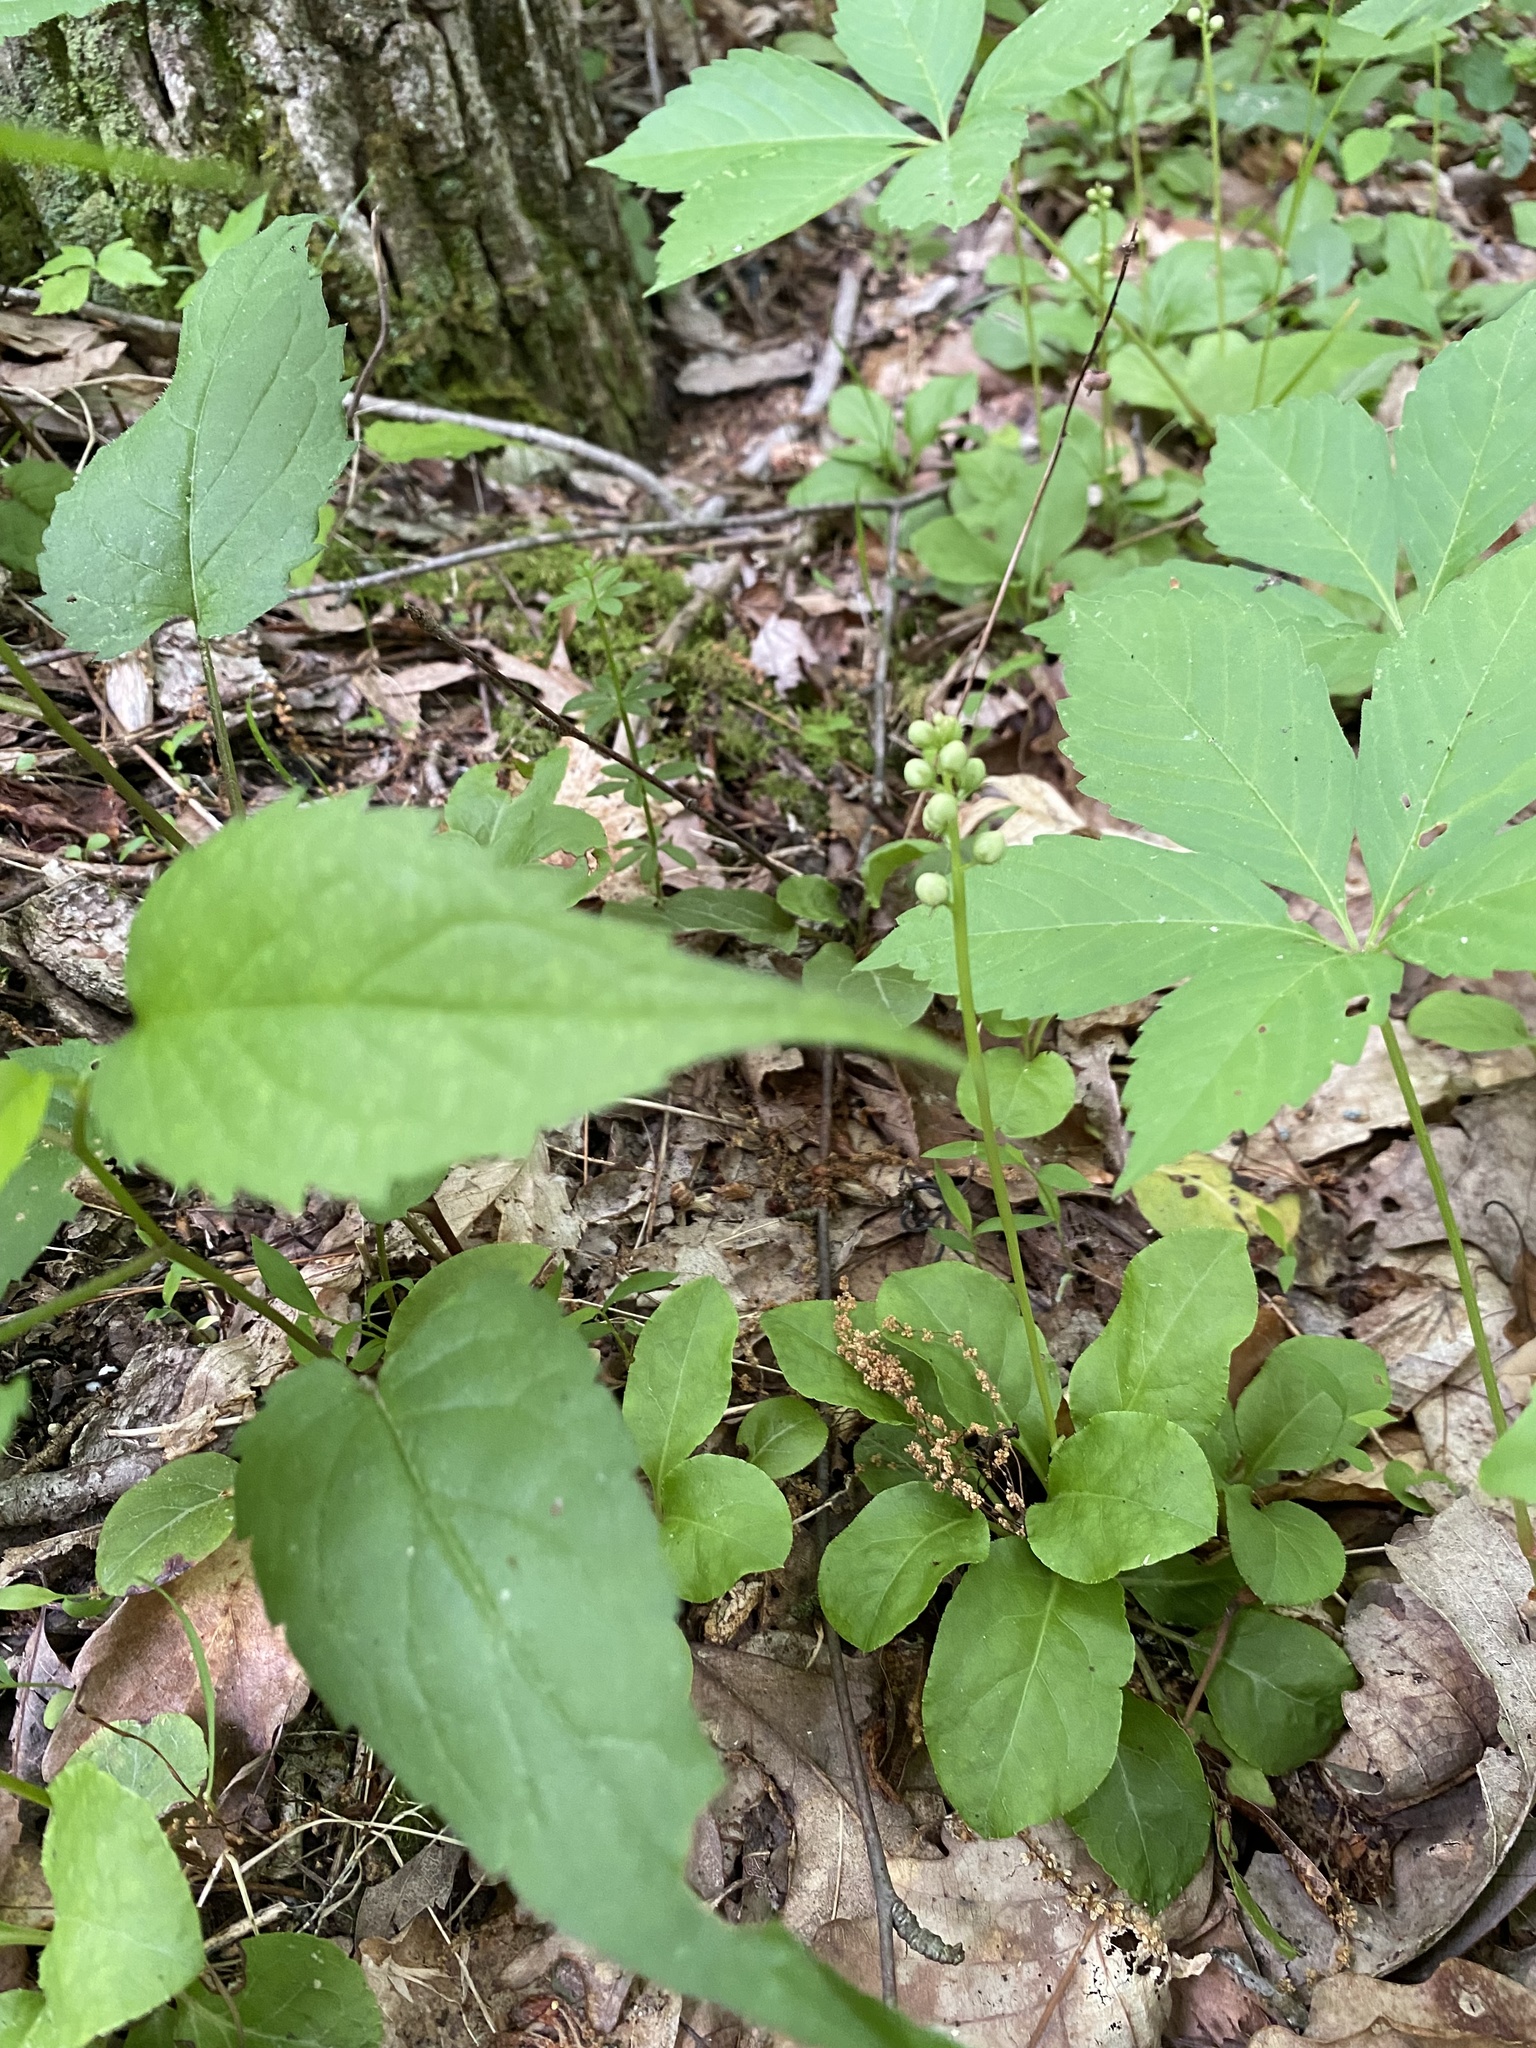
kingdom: Plantae
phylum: Tracheophyta
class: Magnoliopsida
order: Ericales
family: Ericaceae
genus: Pyrola
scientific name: Pyrola elliptica
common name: Shinleaf
